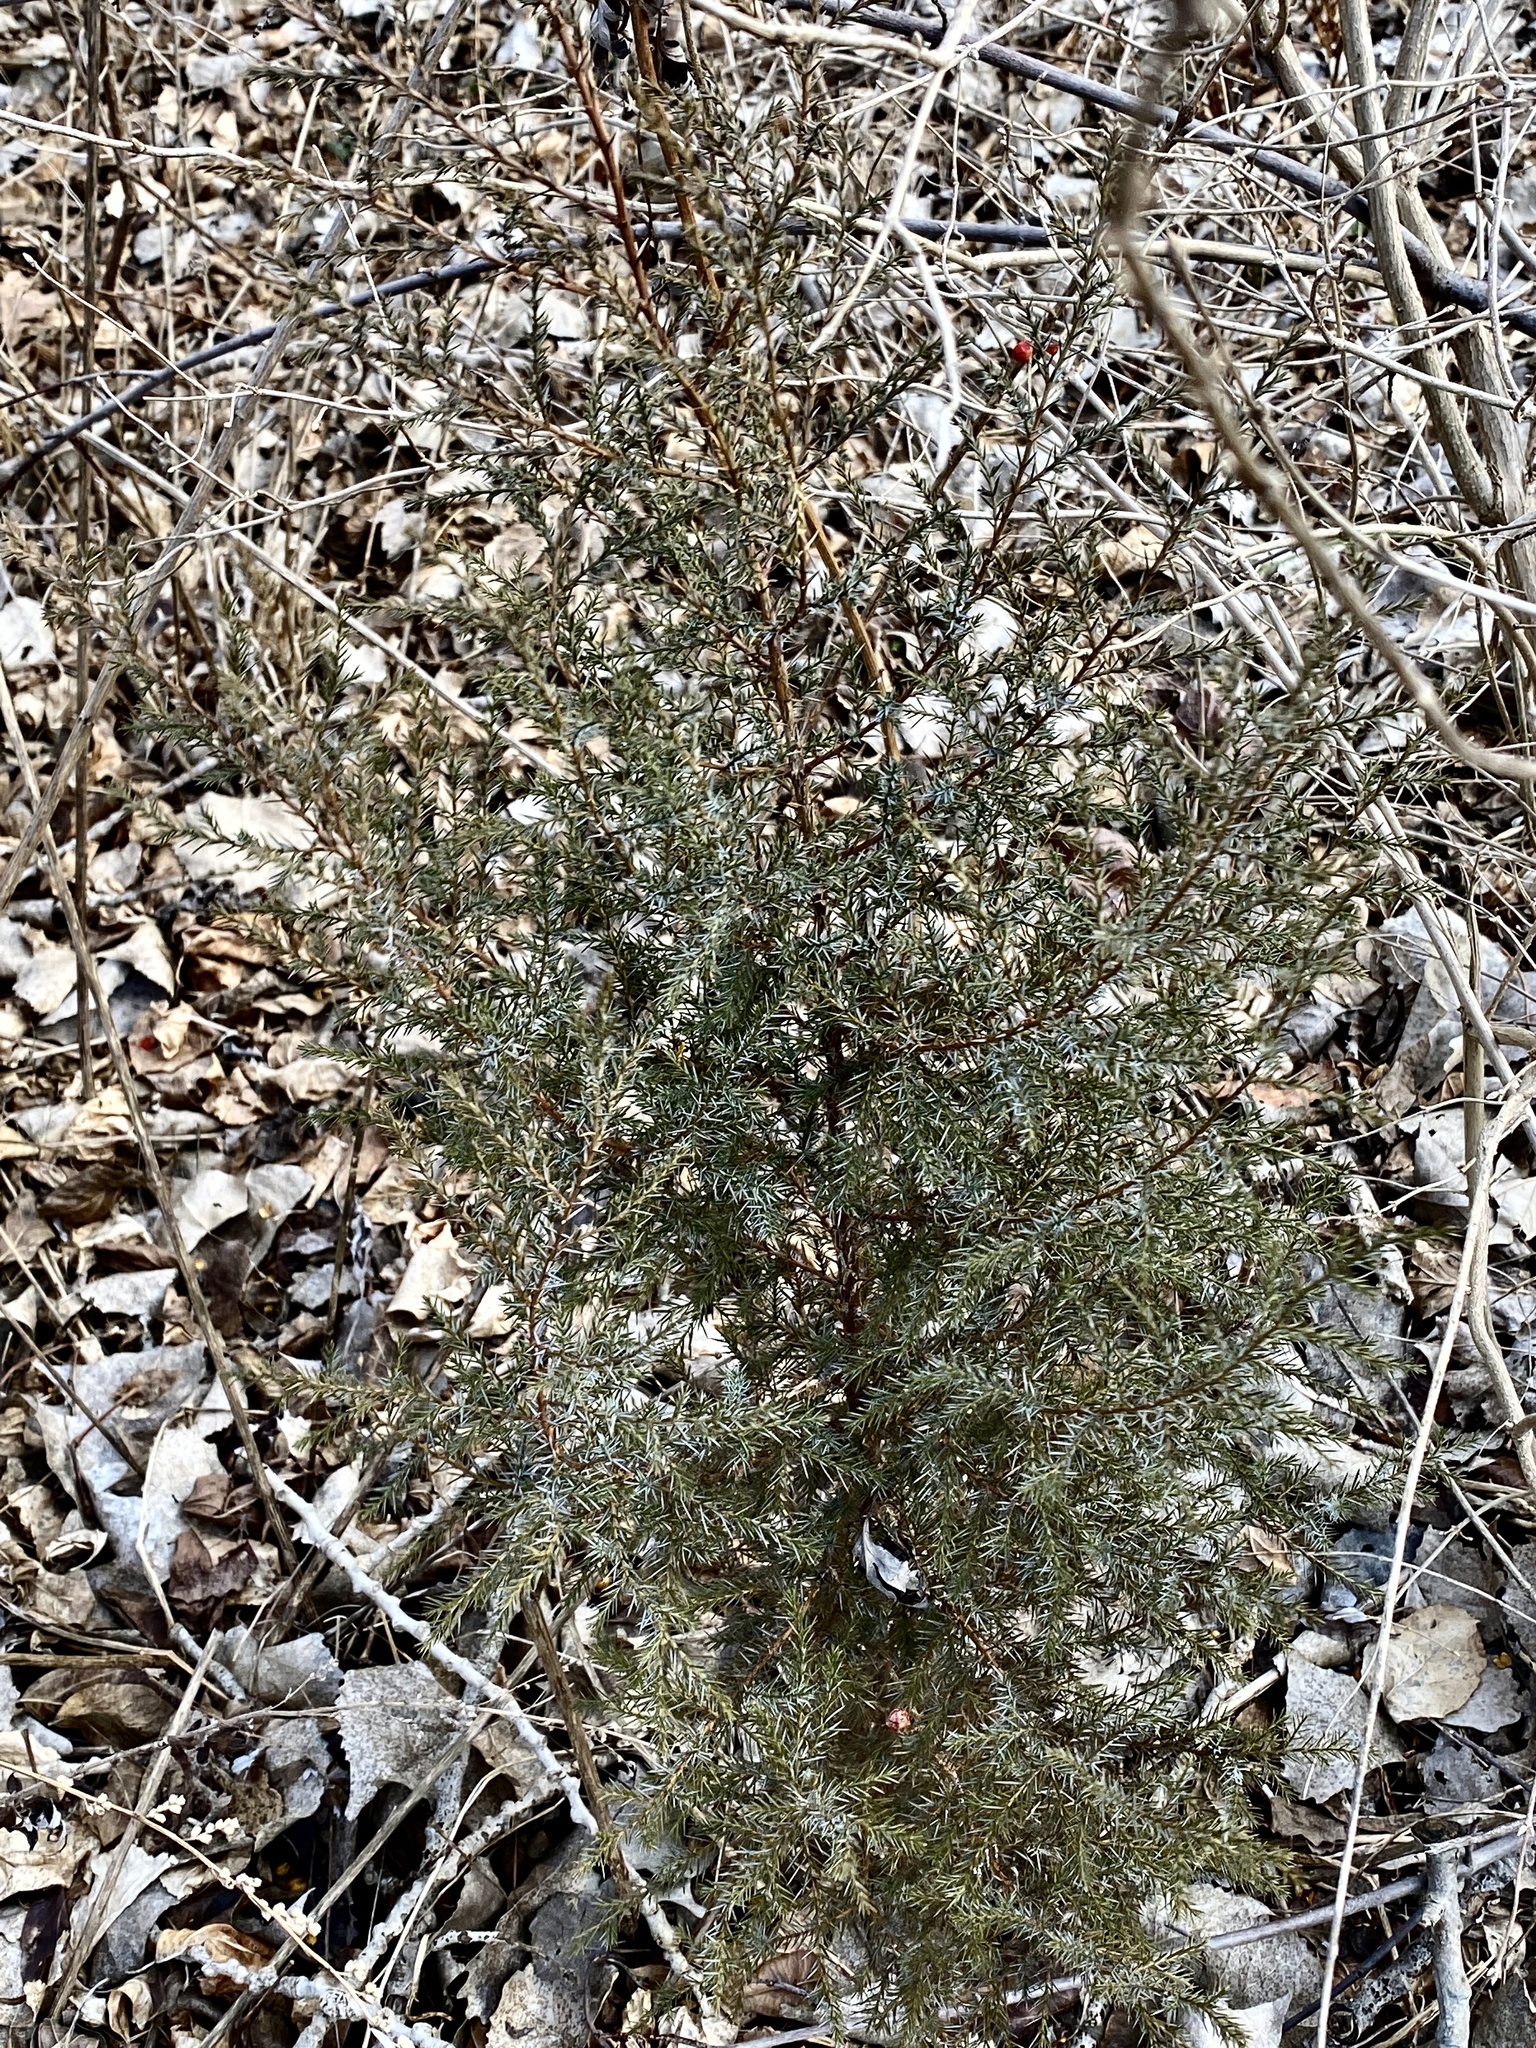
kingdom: Plantae
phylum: Tracheophyta
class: Pinopsida
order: Pinales
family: Cupressaceae
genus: Juniperus
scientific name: Juniperus virginiana
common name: Red juniper
